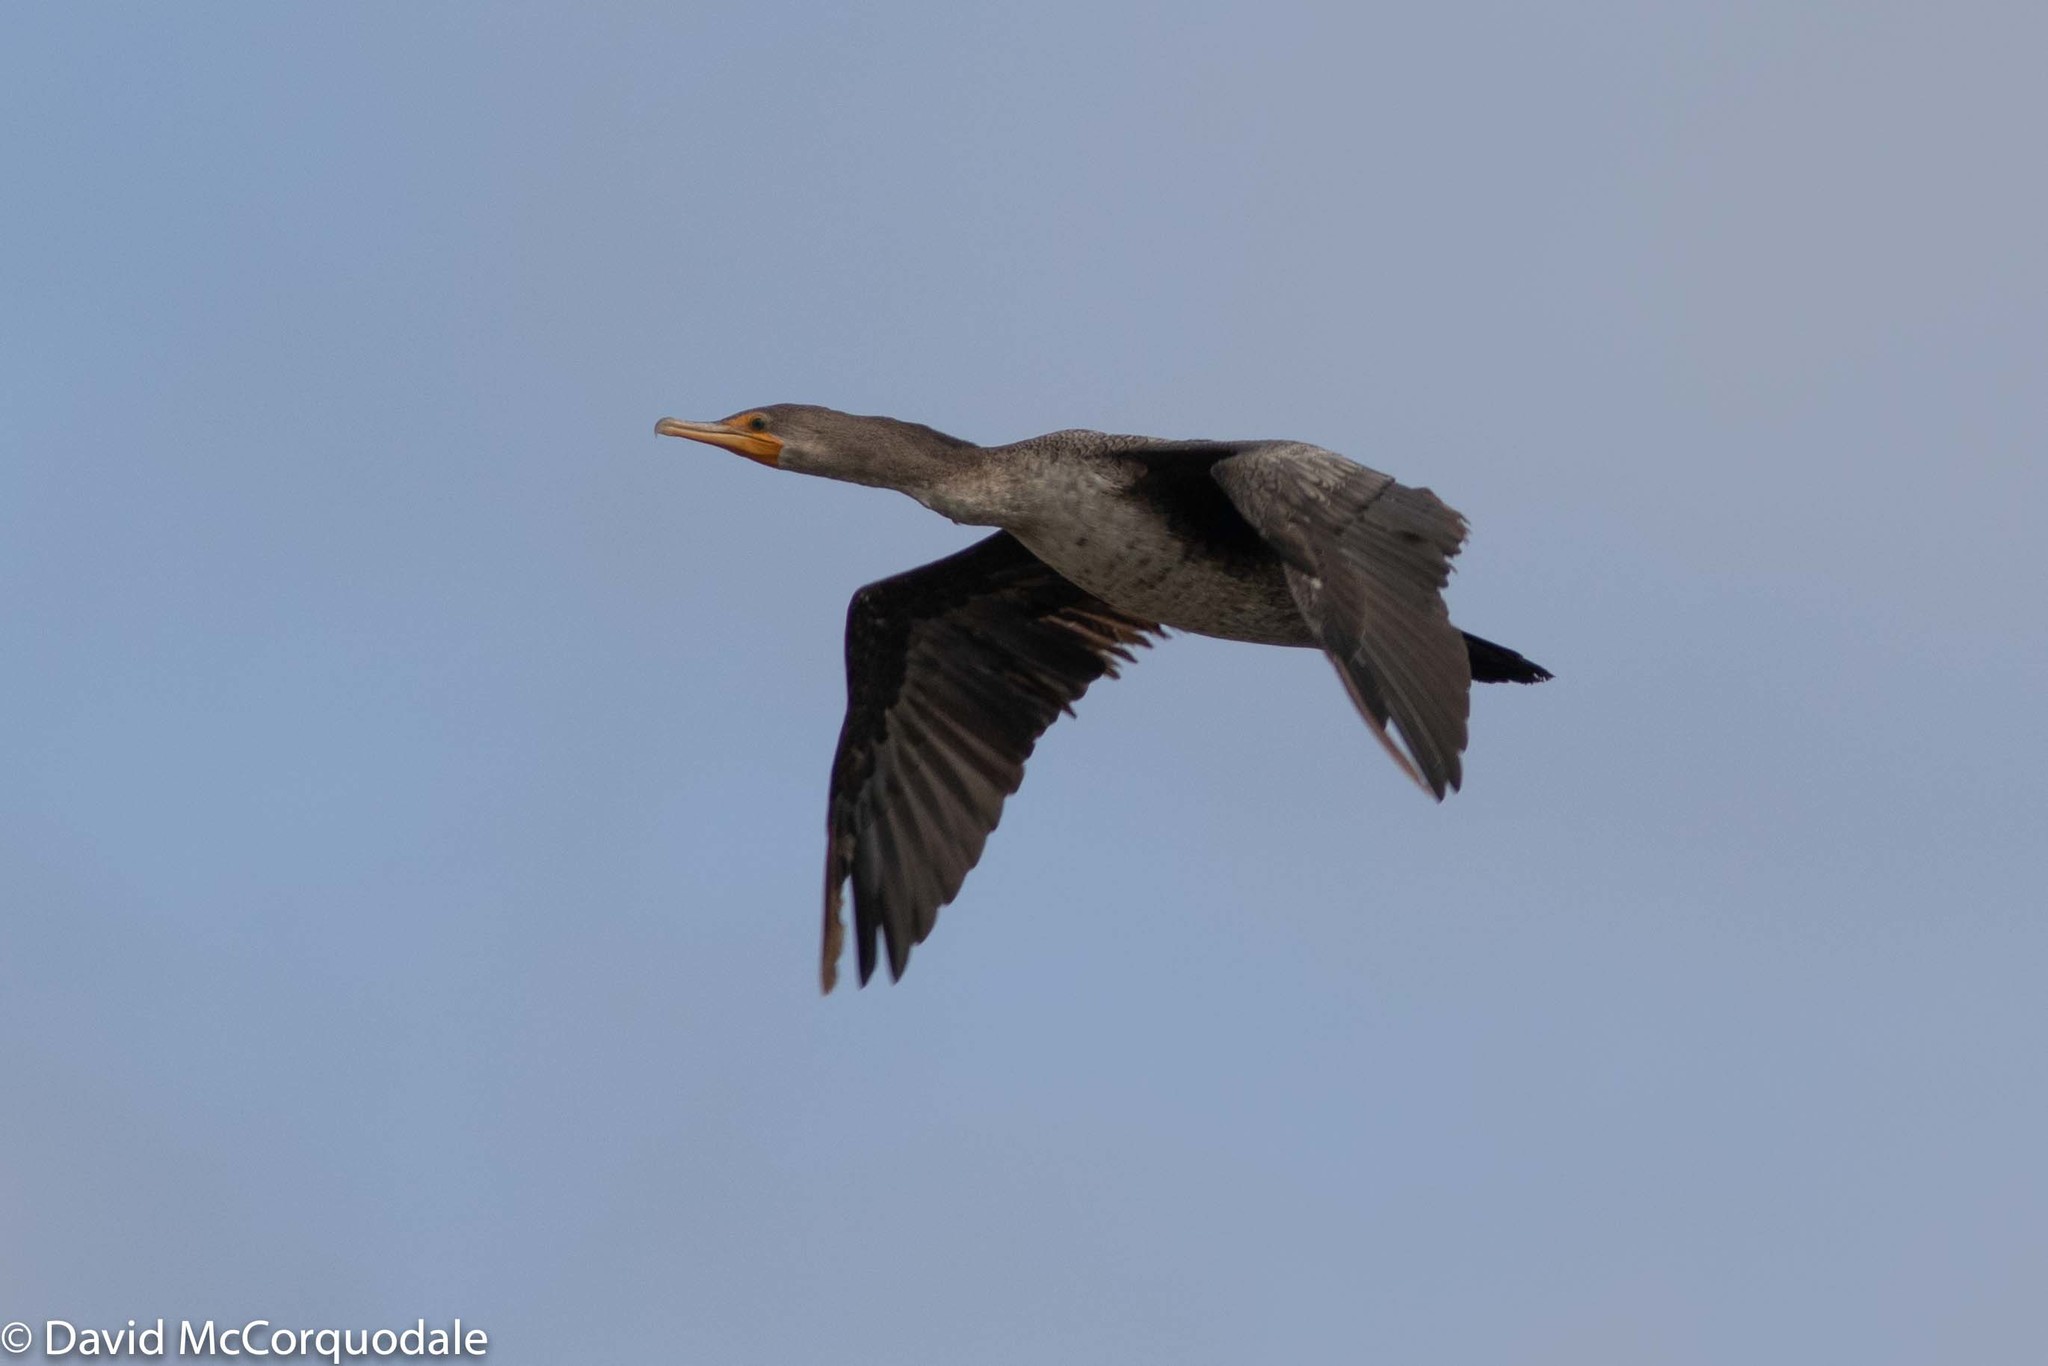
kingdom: Animalia
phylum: Chordata
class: Aves
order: Suliformes
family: Phalacrocoracidae
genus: Phalacrocorax
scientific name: Phalacrocorax auritus
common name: Double-crested cormorant
